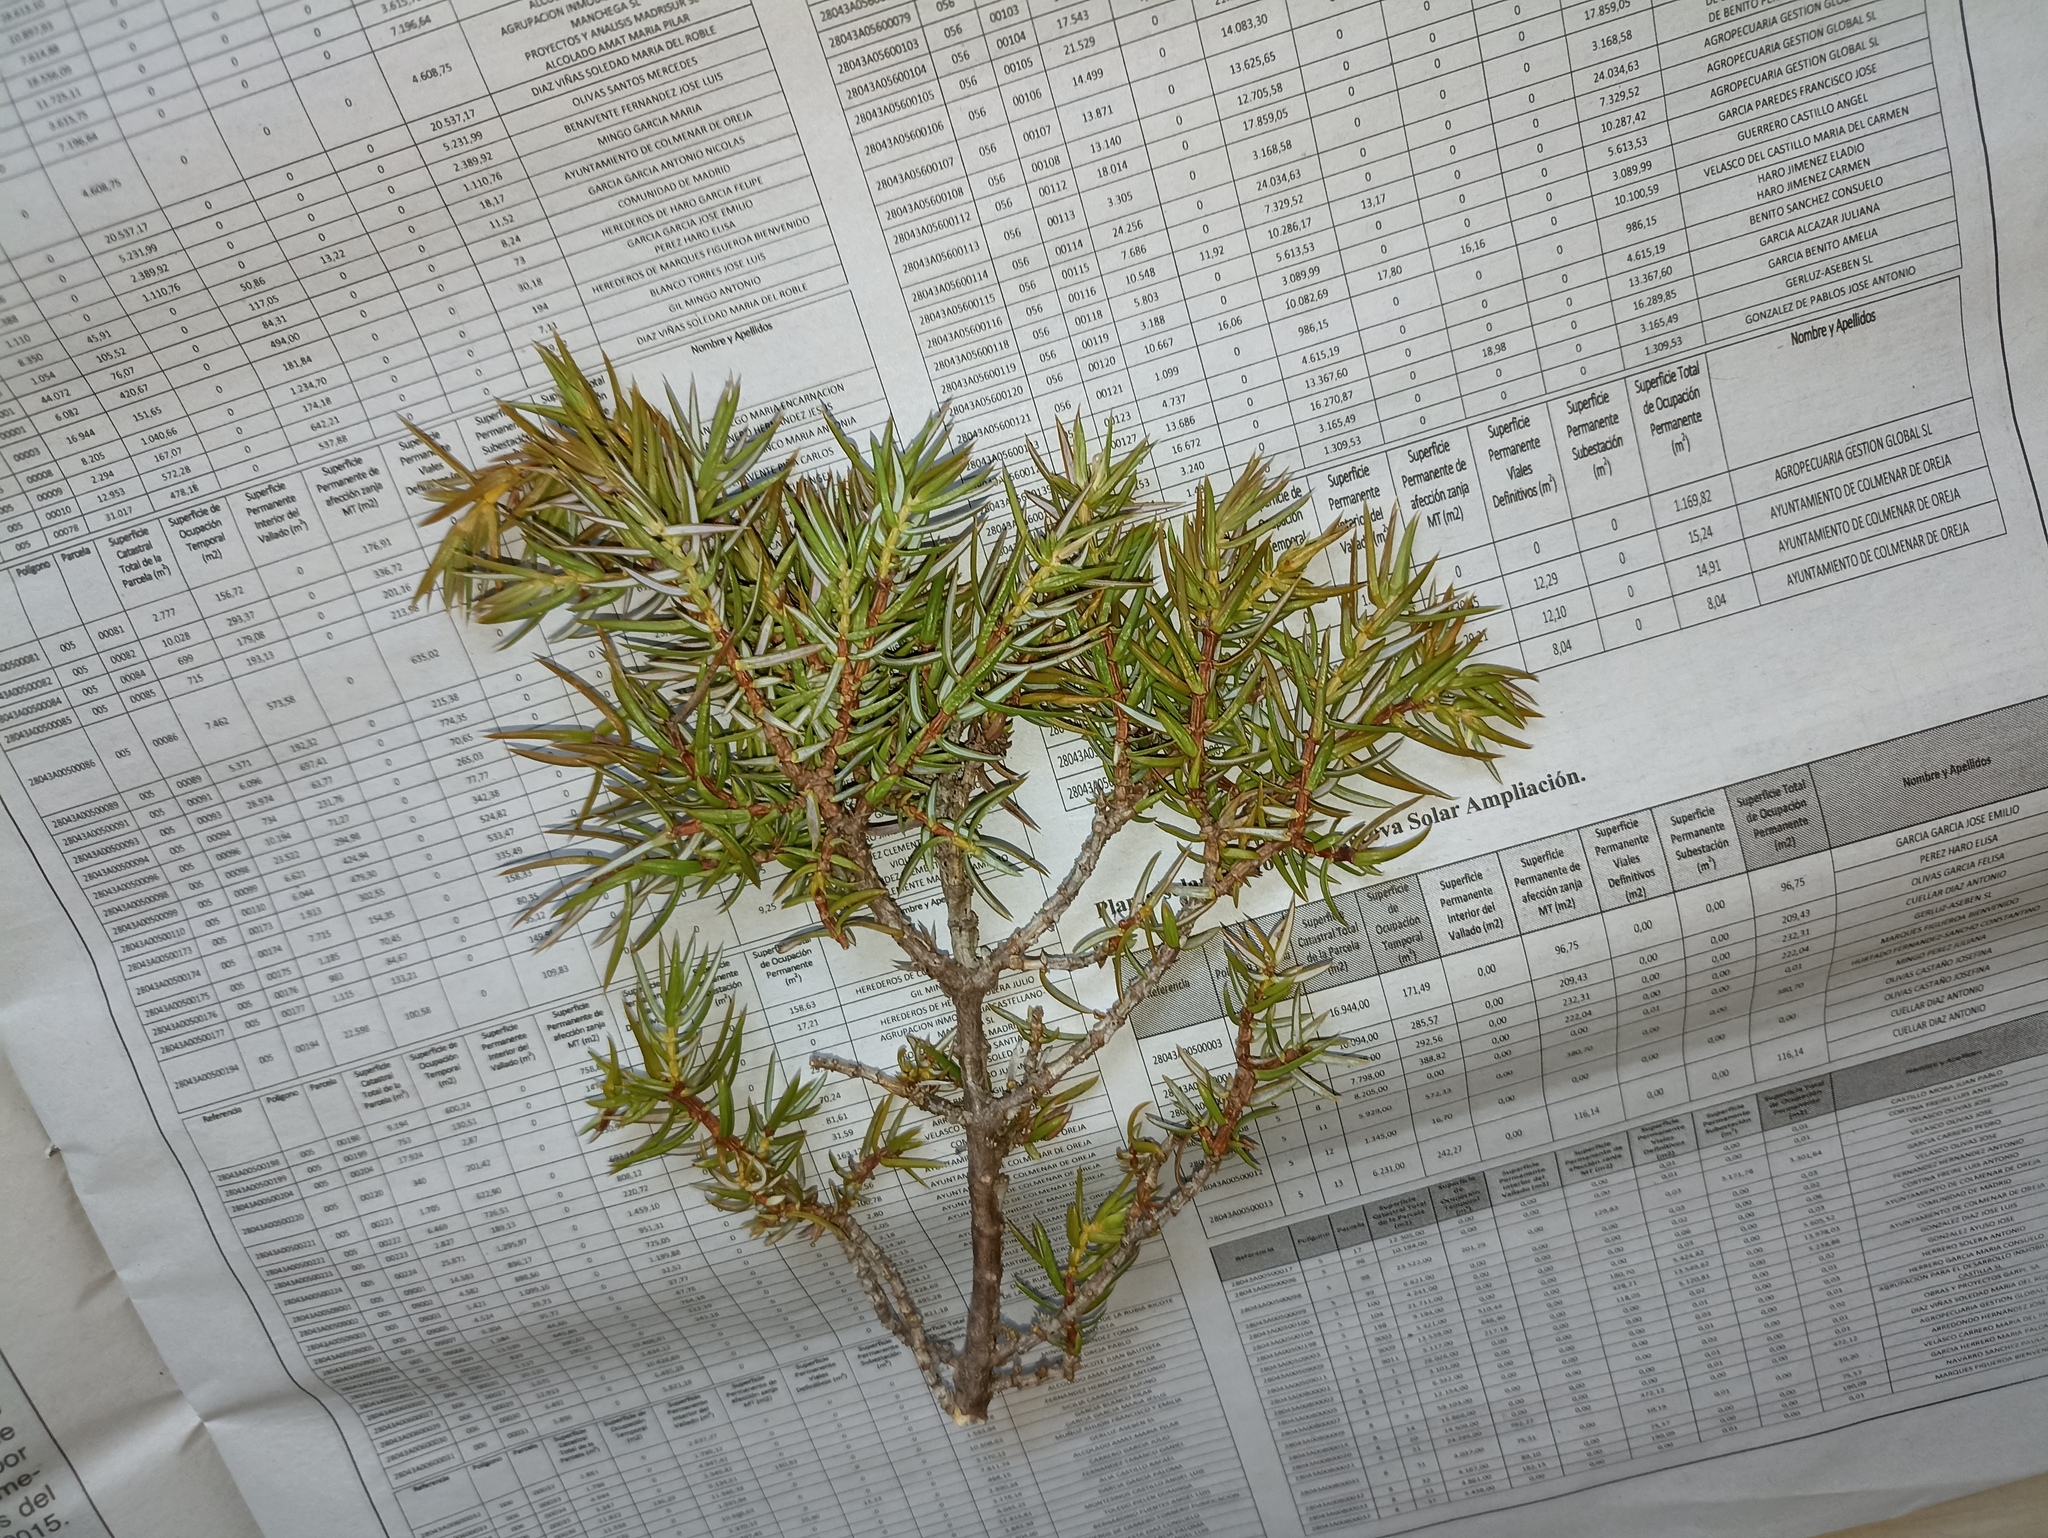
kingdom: Plantae
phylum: Tracheophyta
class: Pinopsida
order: Pinales
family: Cupressaceae
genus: Juniperus
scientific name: Juniperus communis
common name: Common juniper
